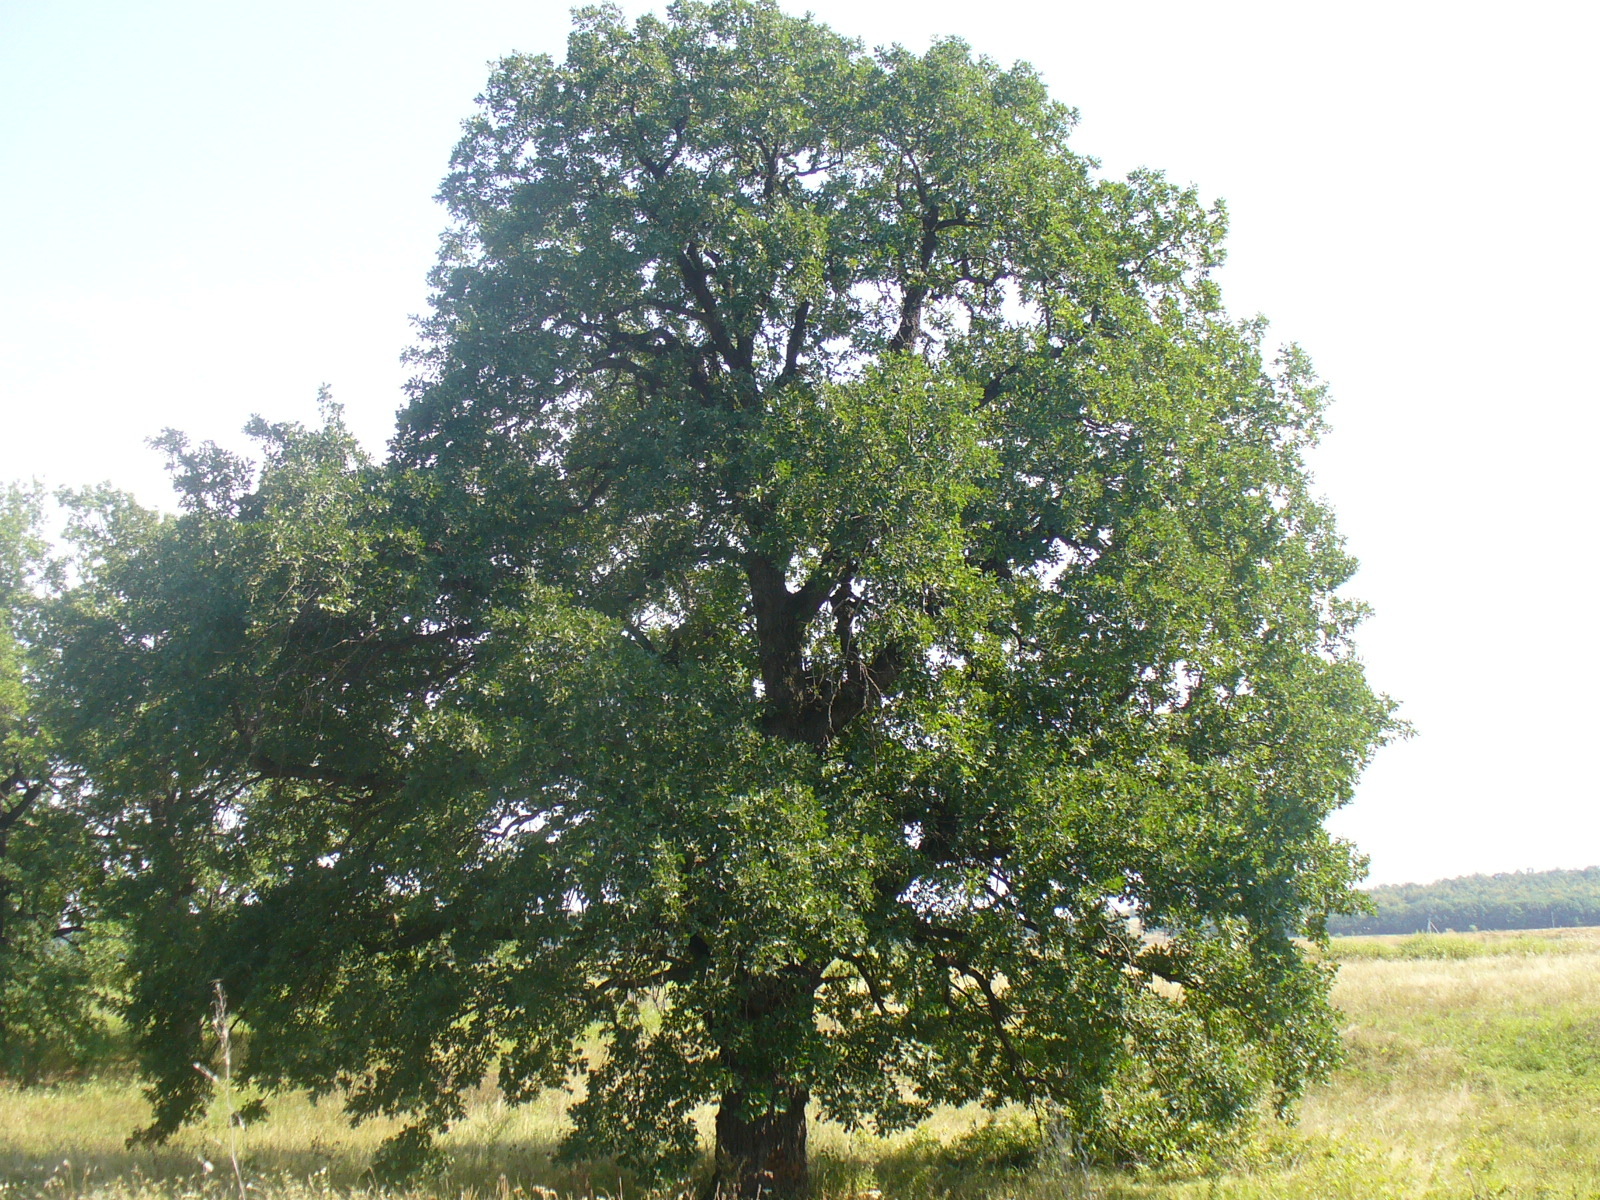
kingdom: Plantae
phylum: Tracheophyta
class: Magnoliopsida
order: Fagales
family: Fagaceae
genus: Quercus
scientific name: Quercus robur
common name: Pedunculate oak
